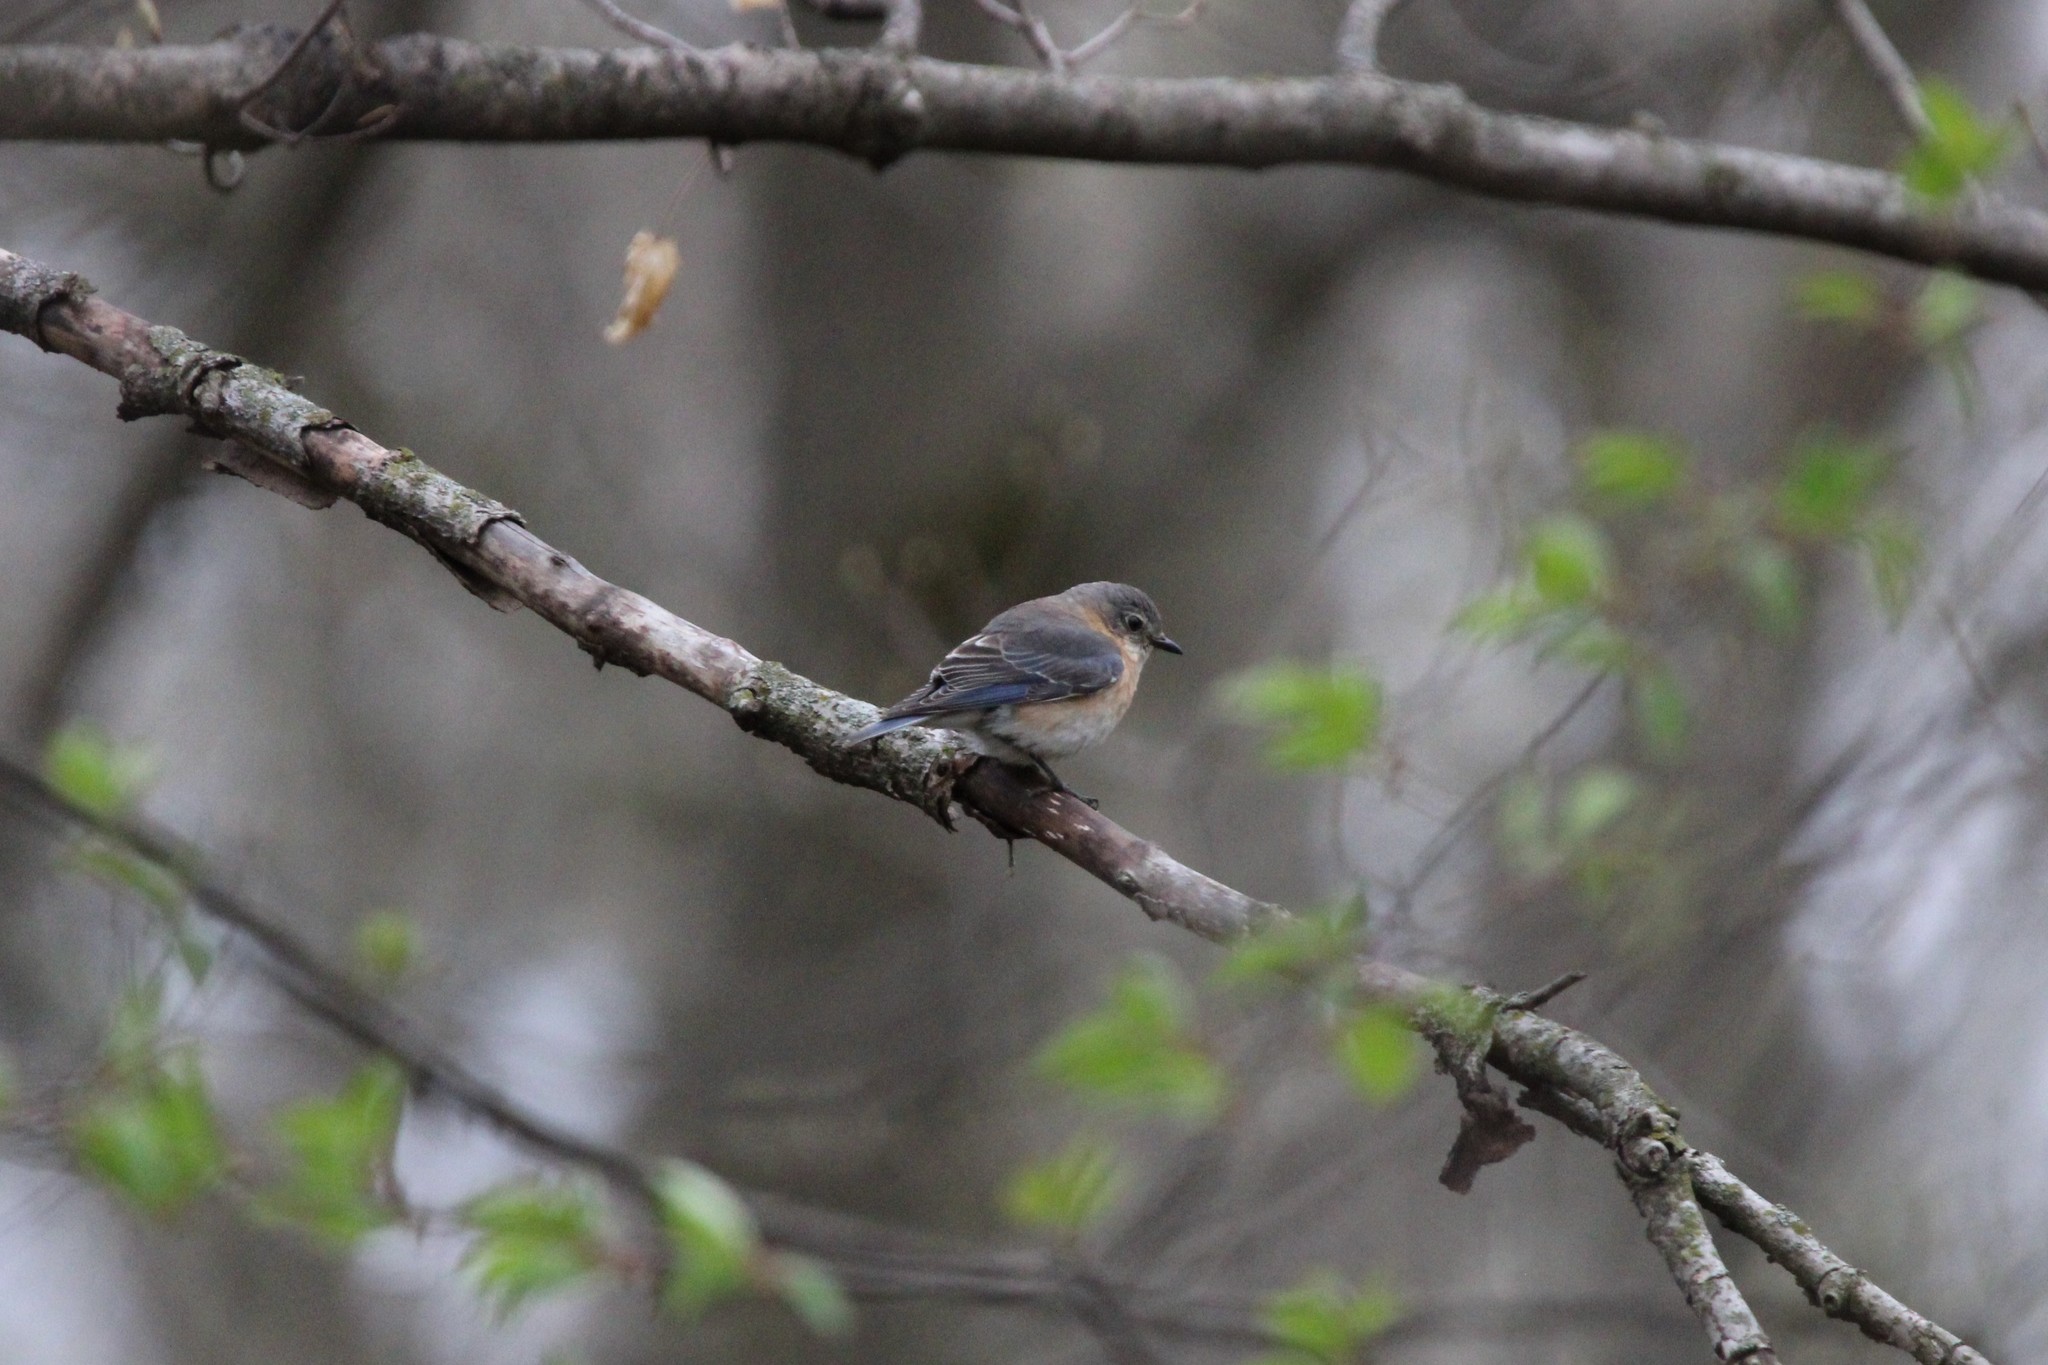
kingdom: Animalia
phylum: Chordata
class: Aves
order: Passeriformes
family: Turdidae
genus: Sialia
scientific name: Sialia sialis
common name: Eastern bluebird
